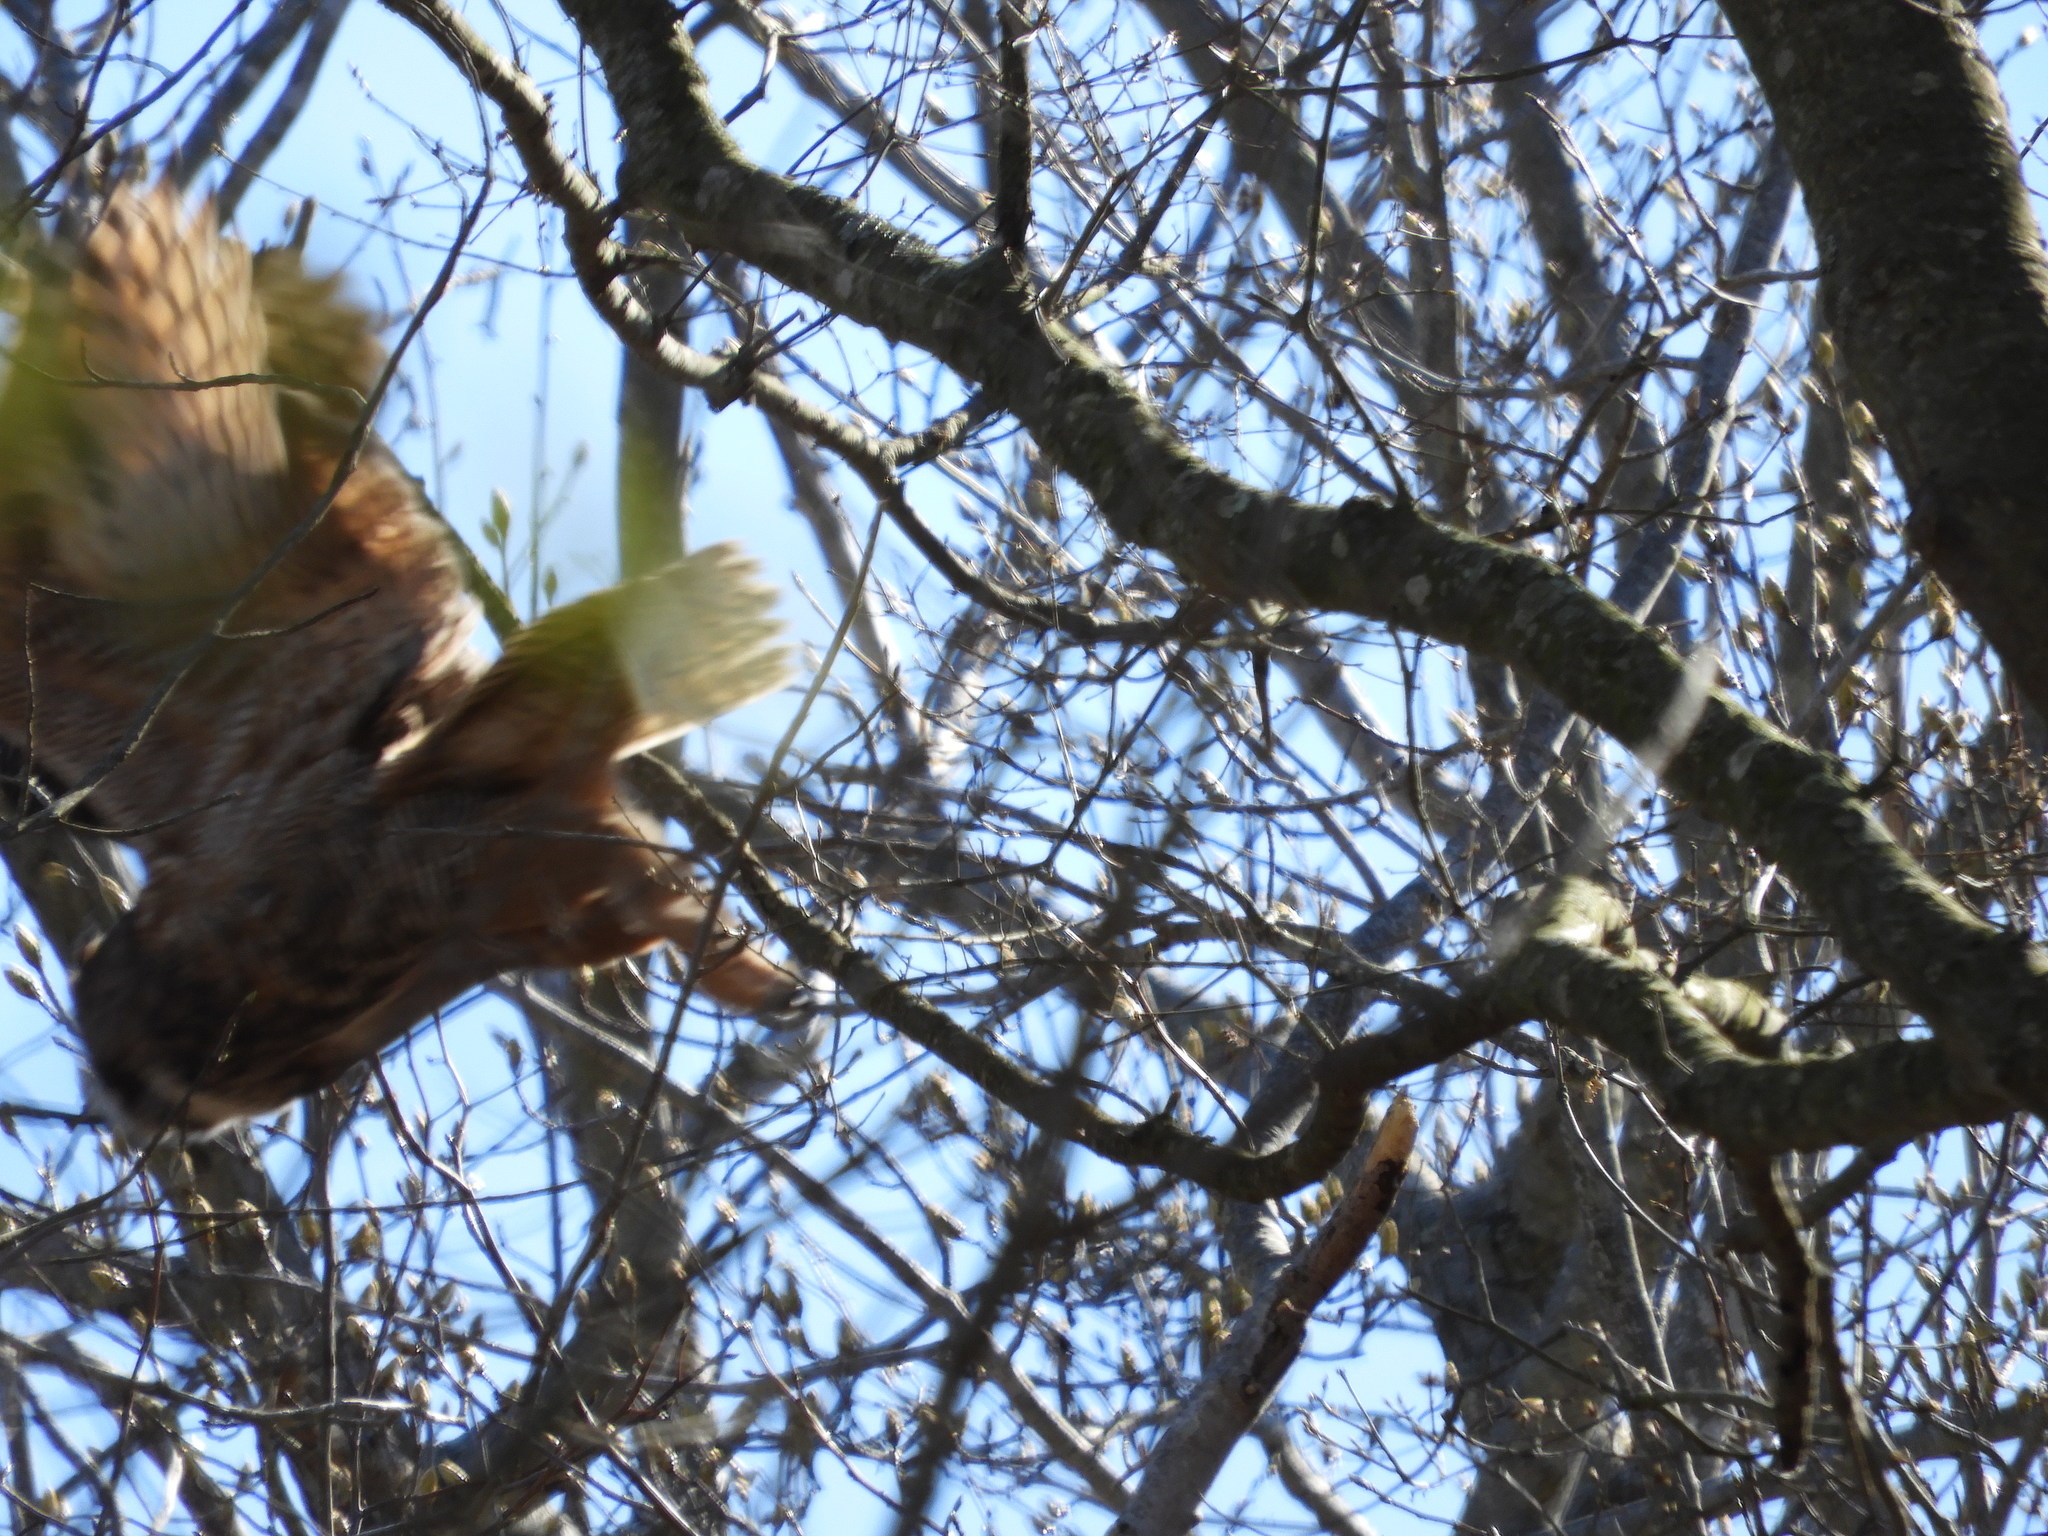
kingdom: Animalia
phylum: Chordata
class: Aves
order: Strigiformes
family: Strigidae
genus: Bubo
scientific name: Bubo virginianus
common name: Great horned owl
